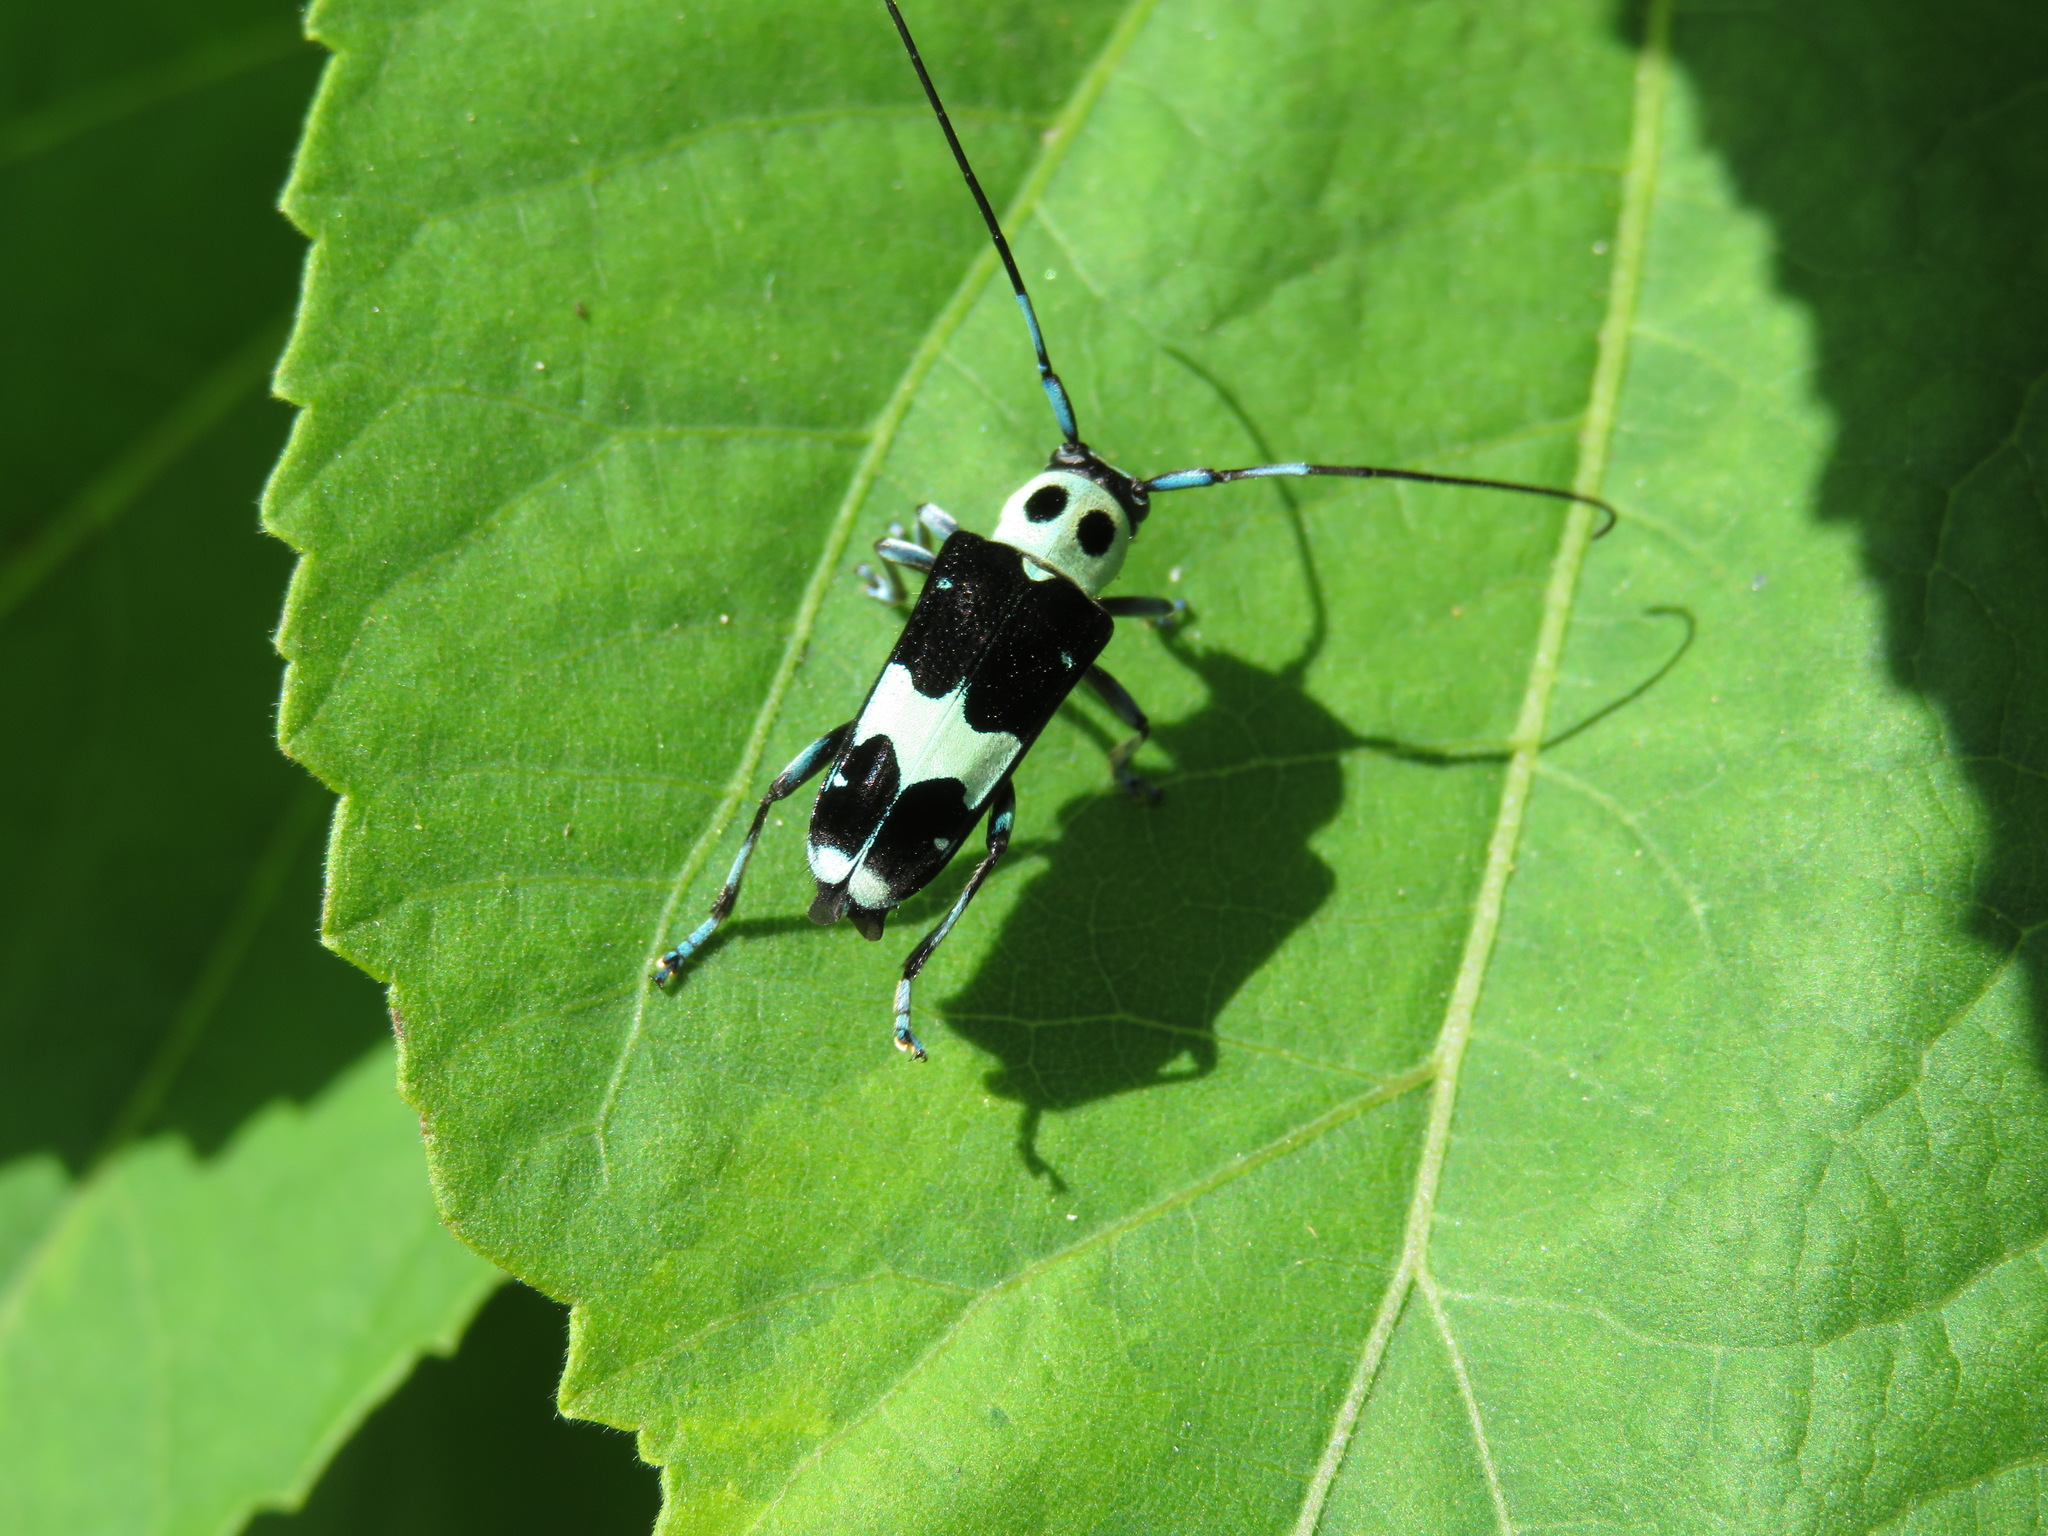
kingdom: Animalia
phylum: Arthropoda
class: Insecta
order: Coleoptera
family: Cerambycidae
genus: Paraglenea
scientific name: Paraglenea fortunei
